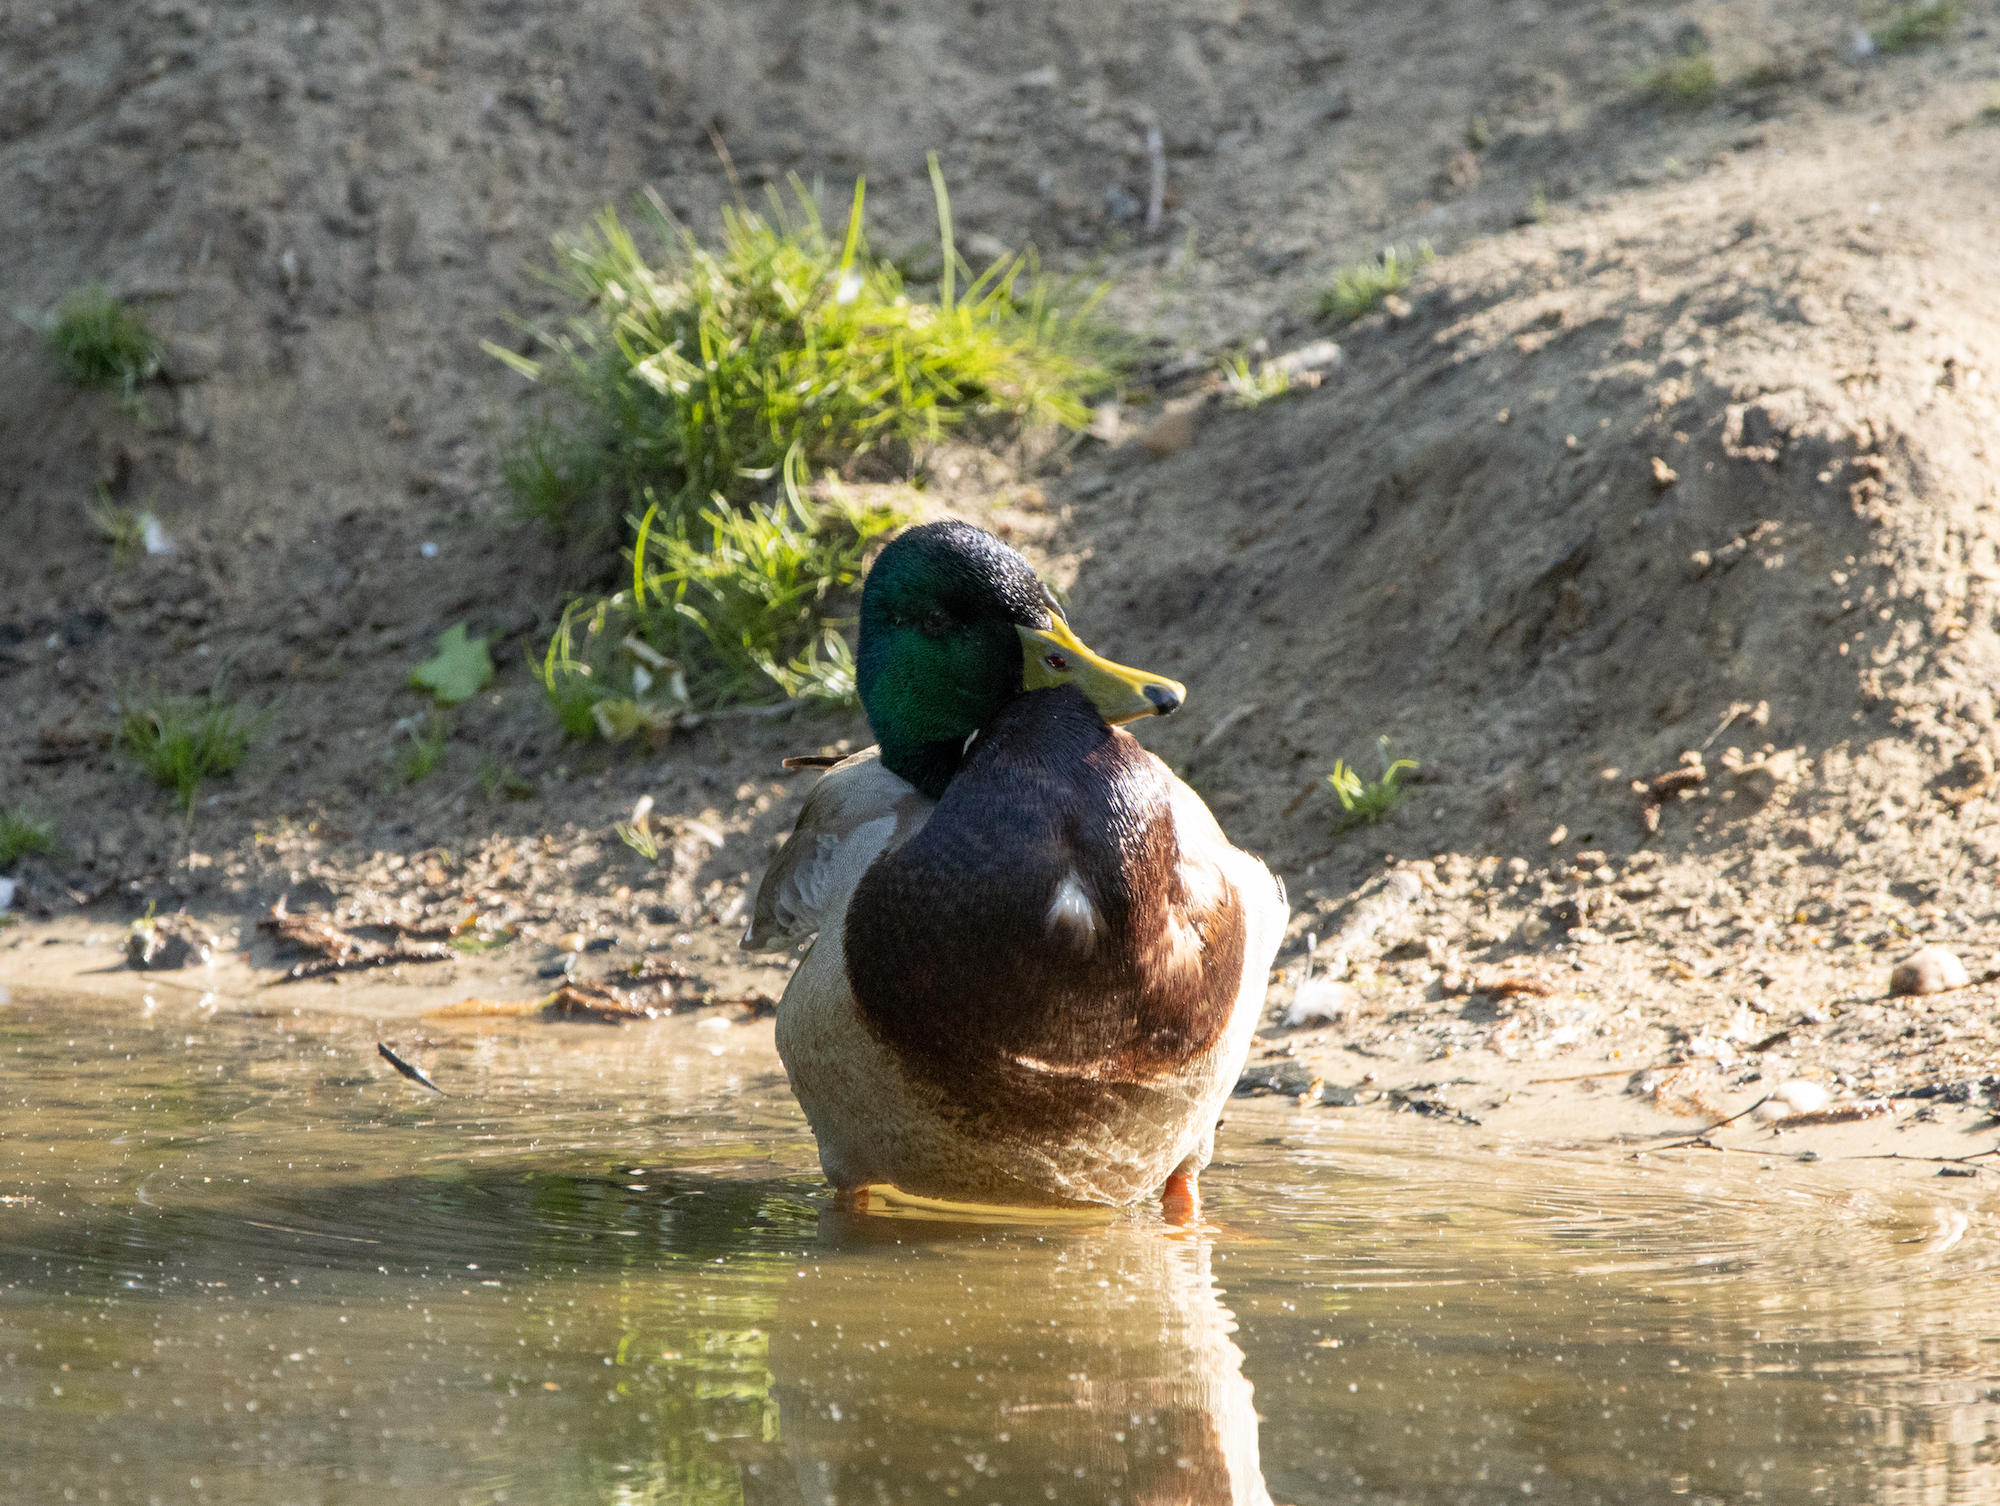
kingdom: Animalia
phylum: Chordata
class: Aves
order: Anseriformes
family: Anatidae
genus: Anas
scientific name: Anas platyrhynchos
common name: Mallard
